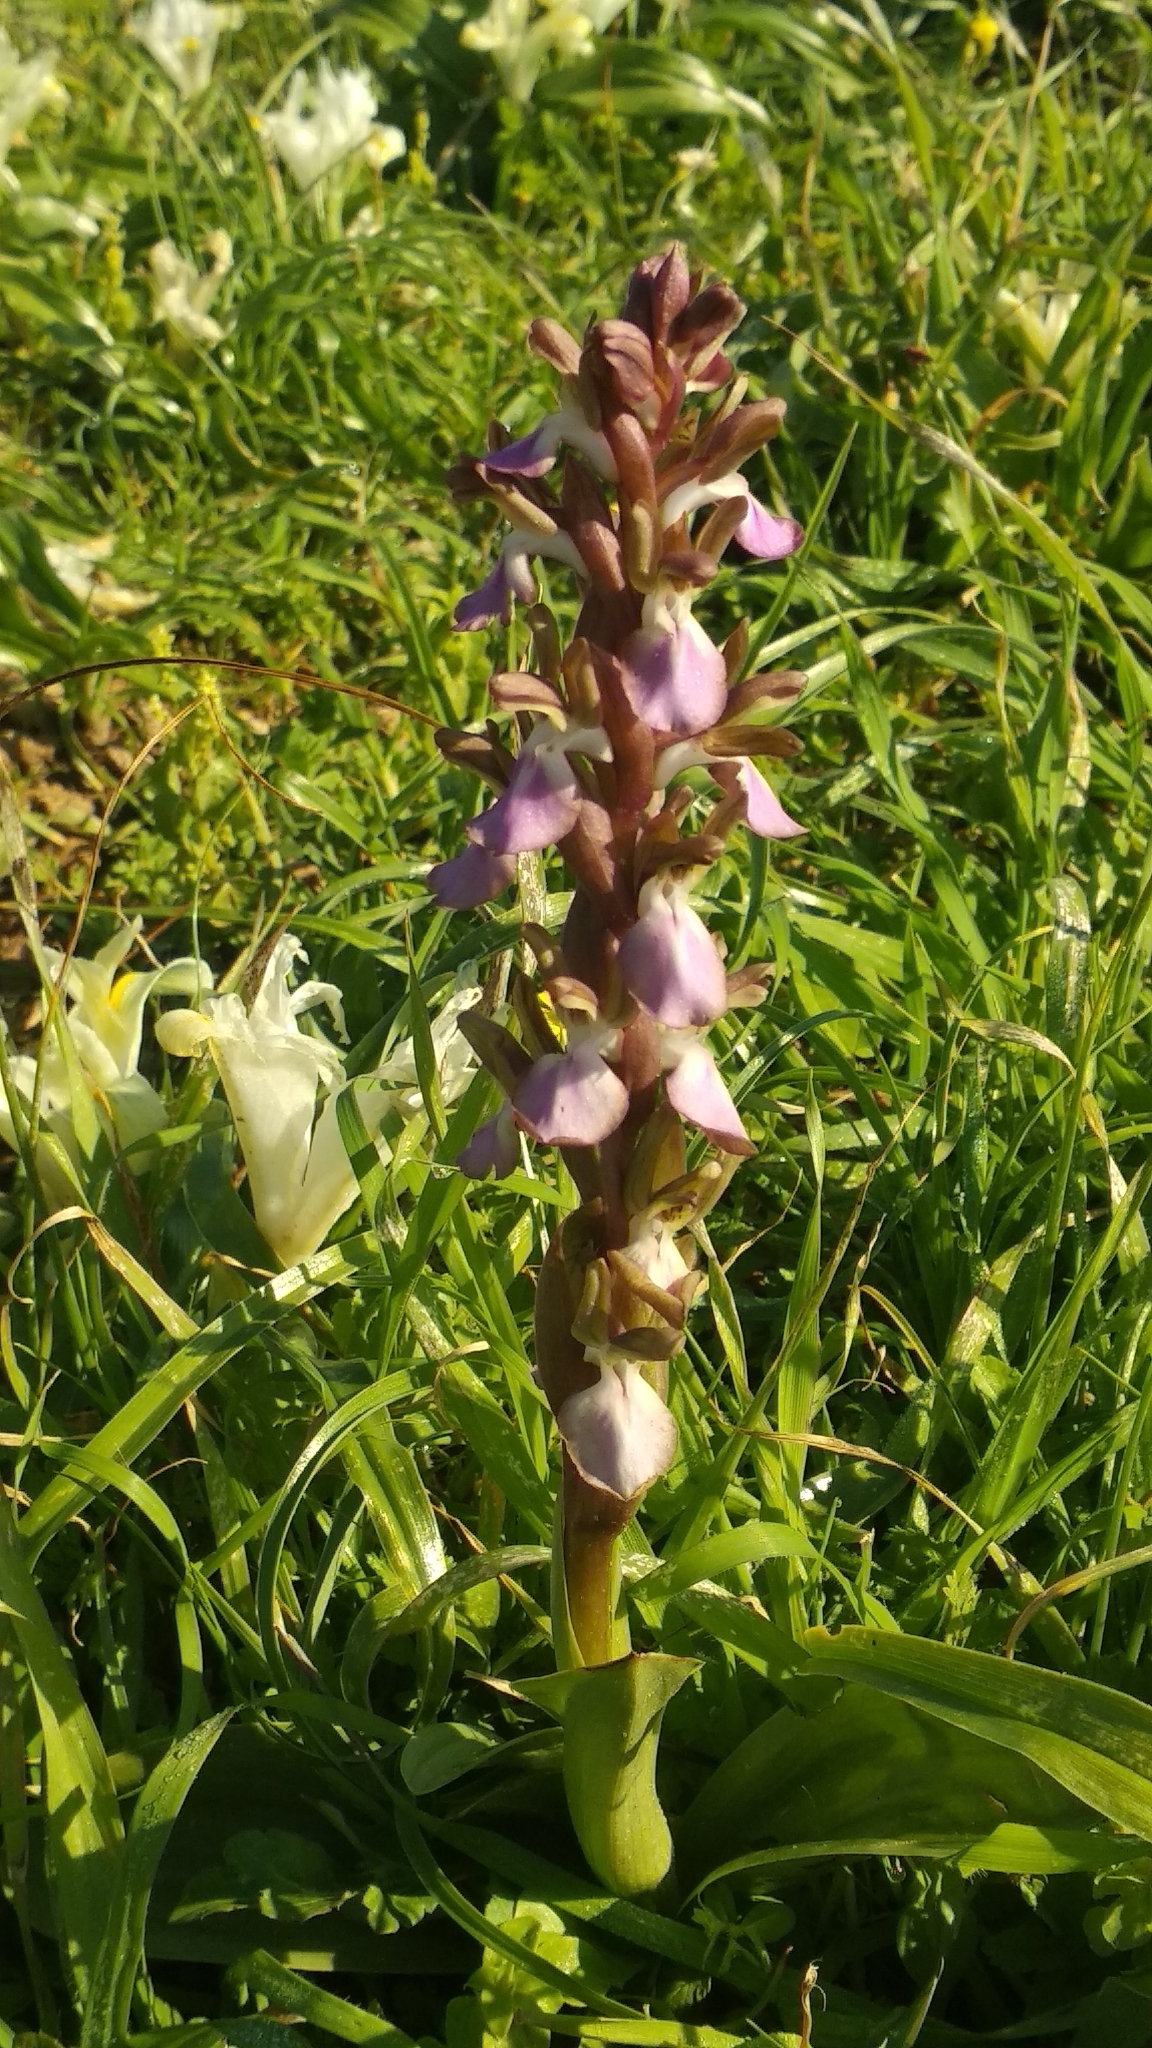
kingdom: Plantae
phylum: Tracheophyta
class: Liliopsida
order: Asparagales
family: Orchidaceae
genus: Anacamptis
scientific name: Anacamptis collina
